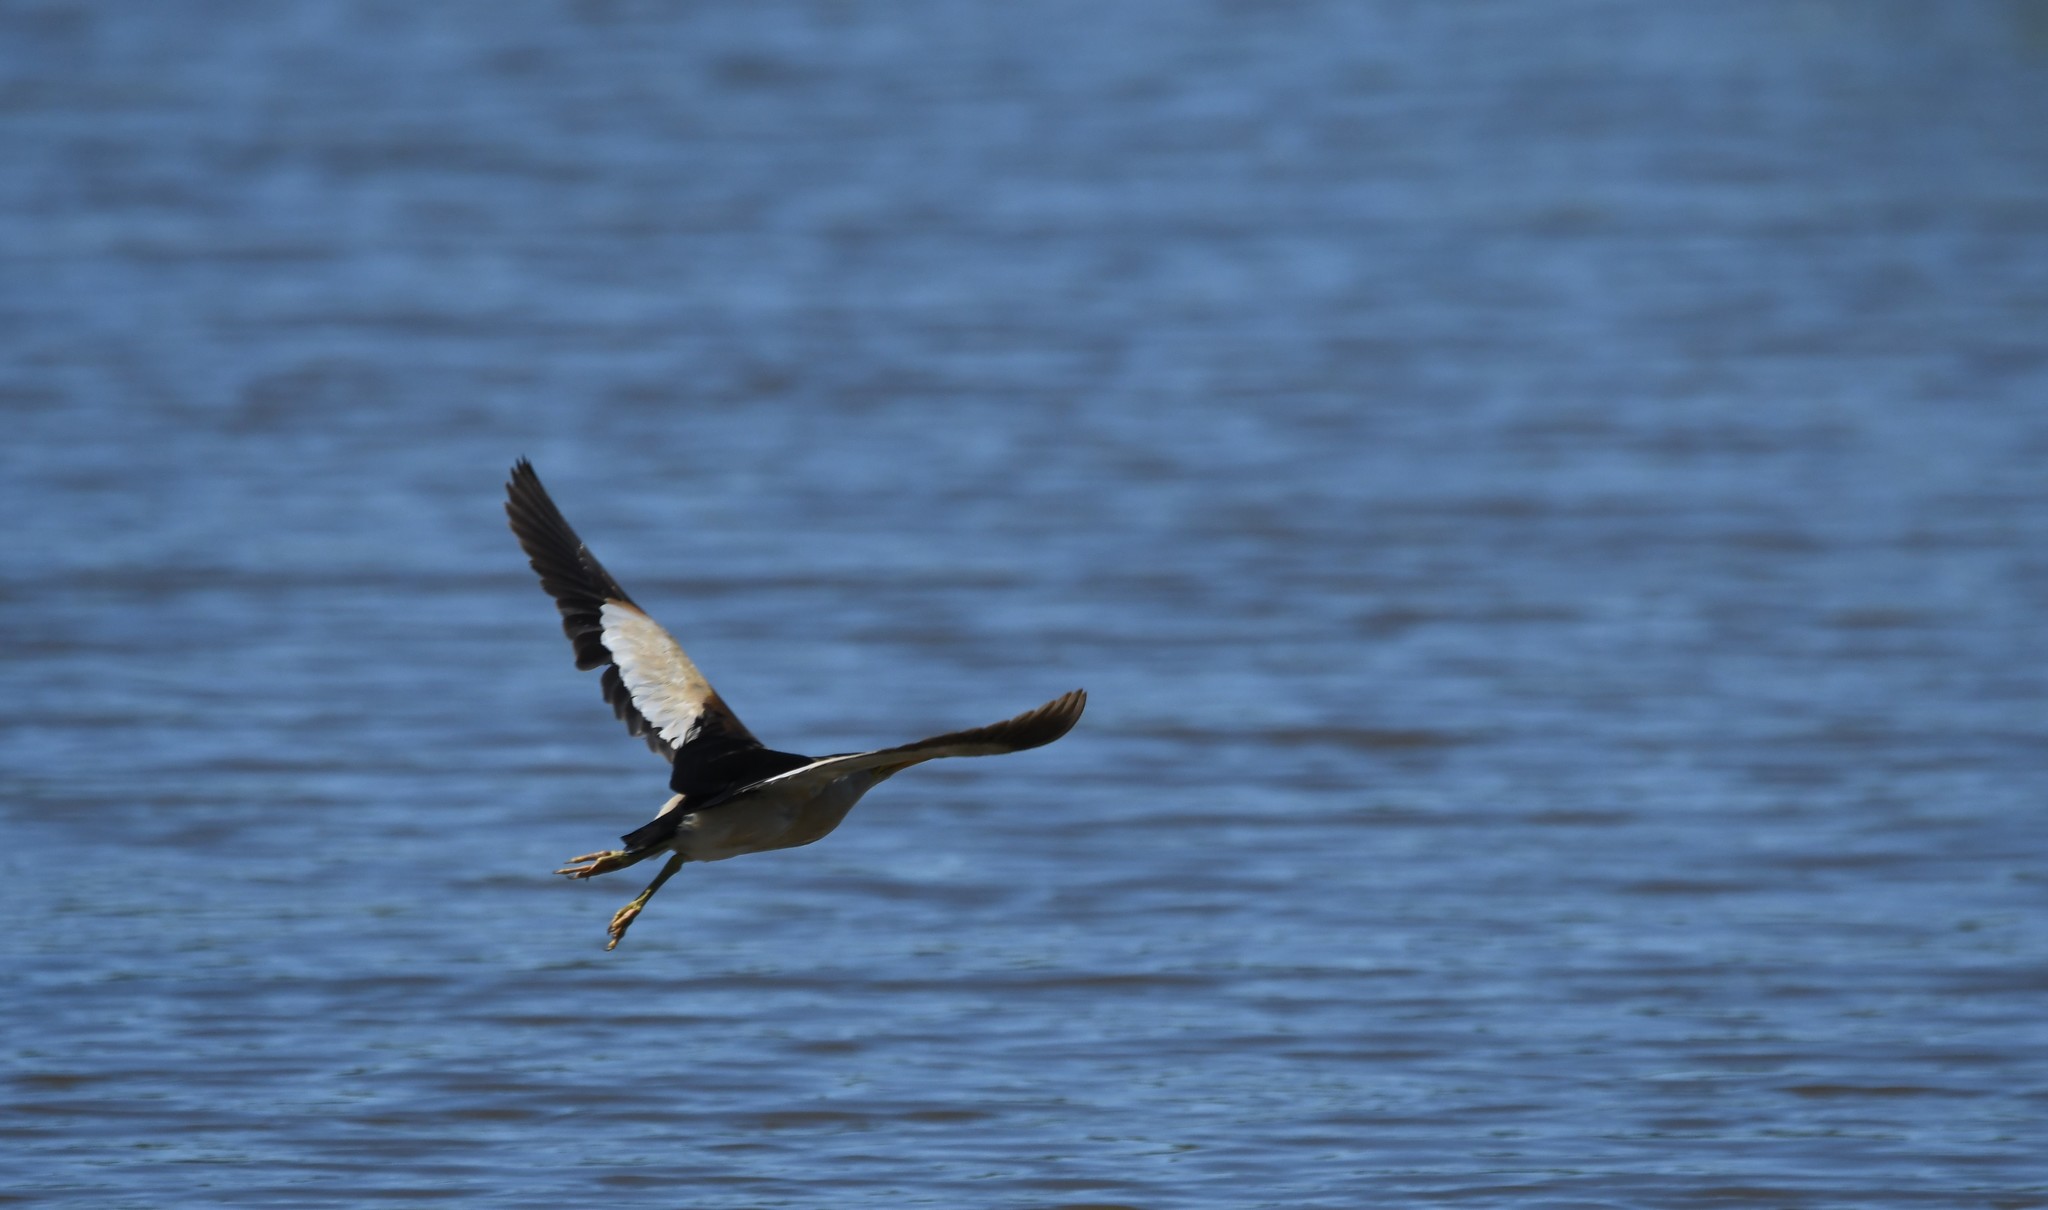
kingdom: Animalia
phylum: Chordata
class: Aves
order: Pelecaniformes
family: Ardeidae
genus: Ixobrychus
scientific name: Ixobrychus minutus
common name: Little bittern
